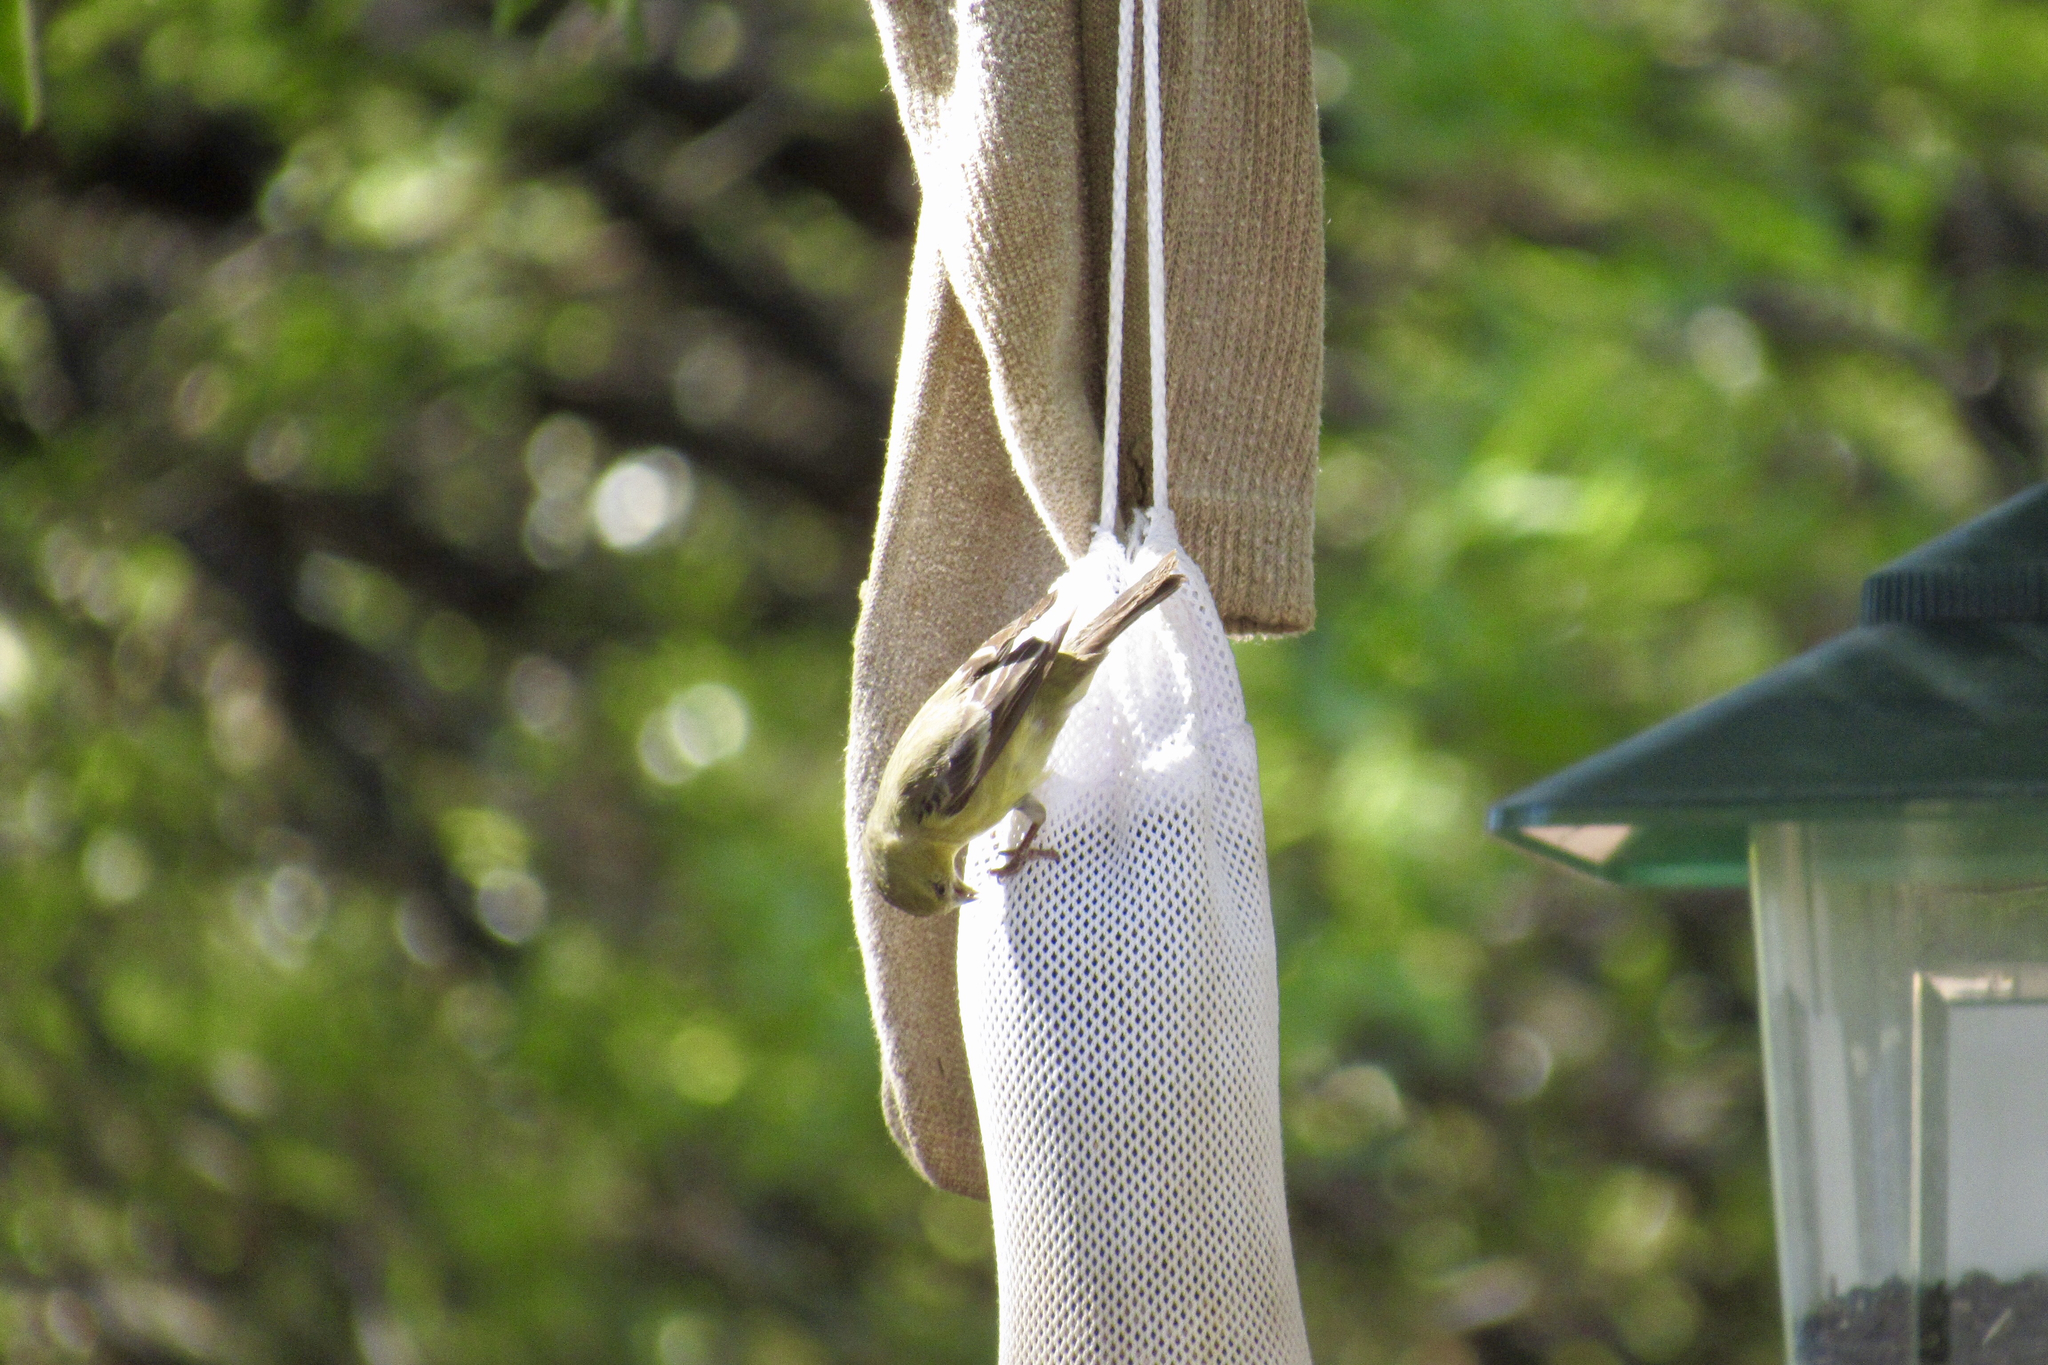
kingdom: Animalia
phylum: Chordata
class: Aves
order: Passeriformes
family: Fringillidae
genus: Spinus
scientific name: Spinus psaltria
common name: Lesser goldfinch
